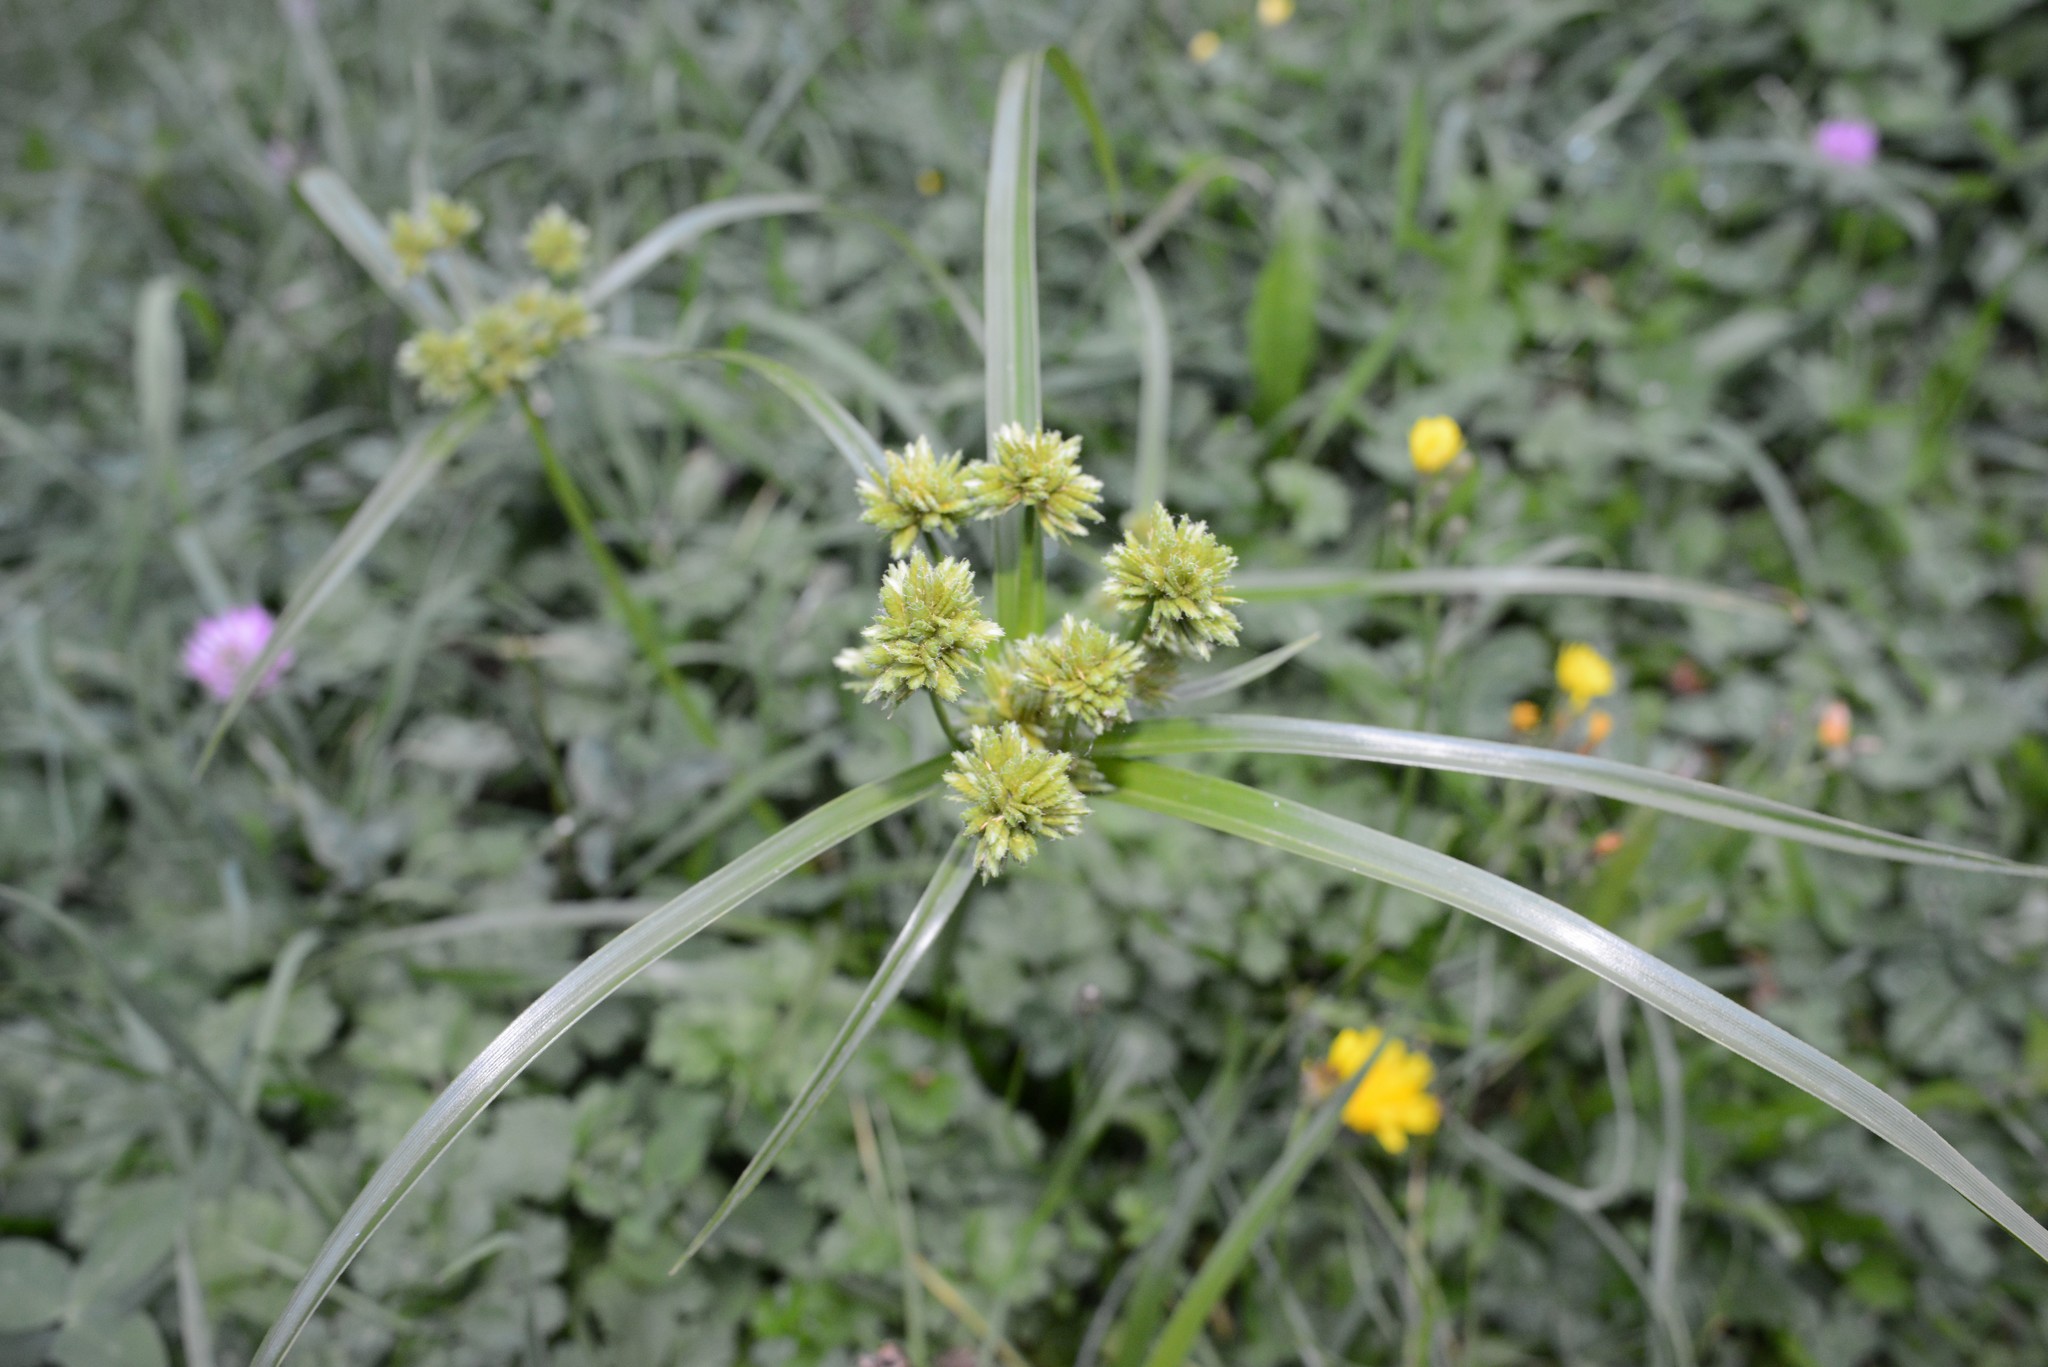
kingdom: Plantae
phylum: Tracheophyta
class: Liliopsida
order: Poales
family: Cyperaceae
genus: Cyperus
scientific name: Cyperus eragrostis
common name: Tall flatsedge
